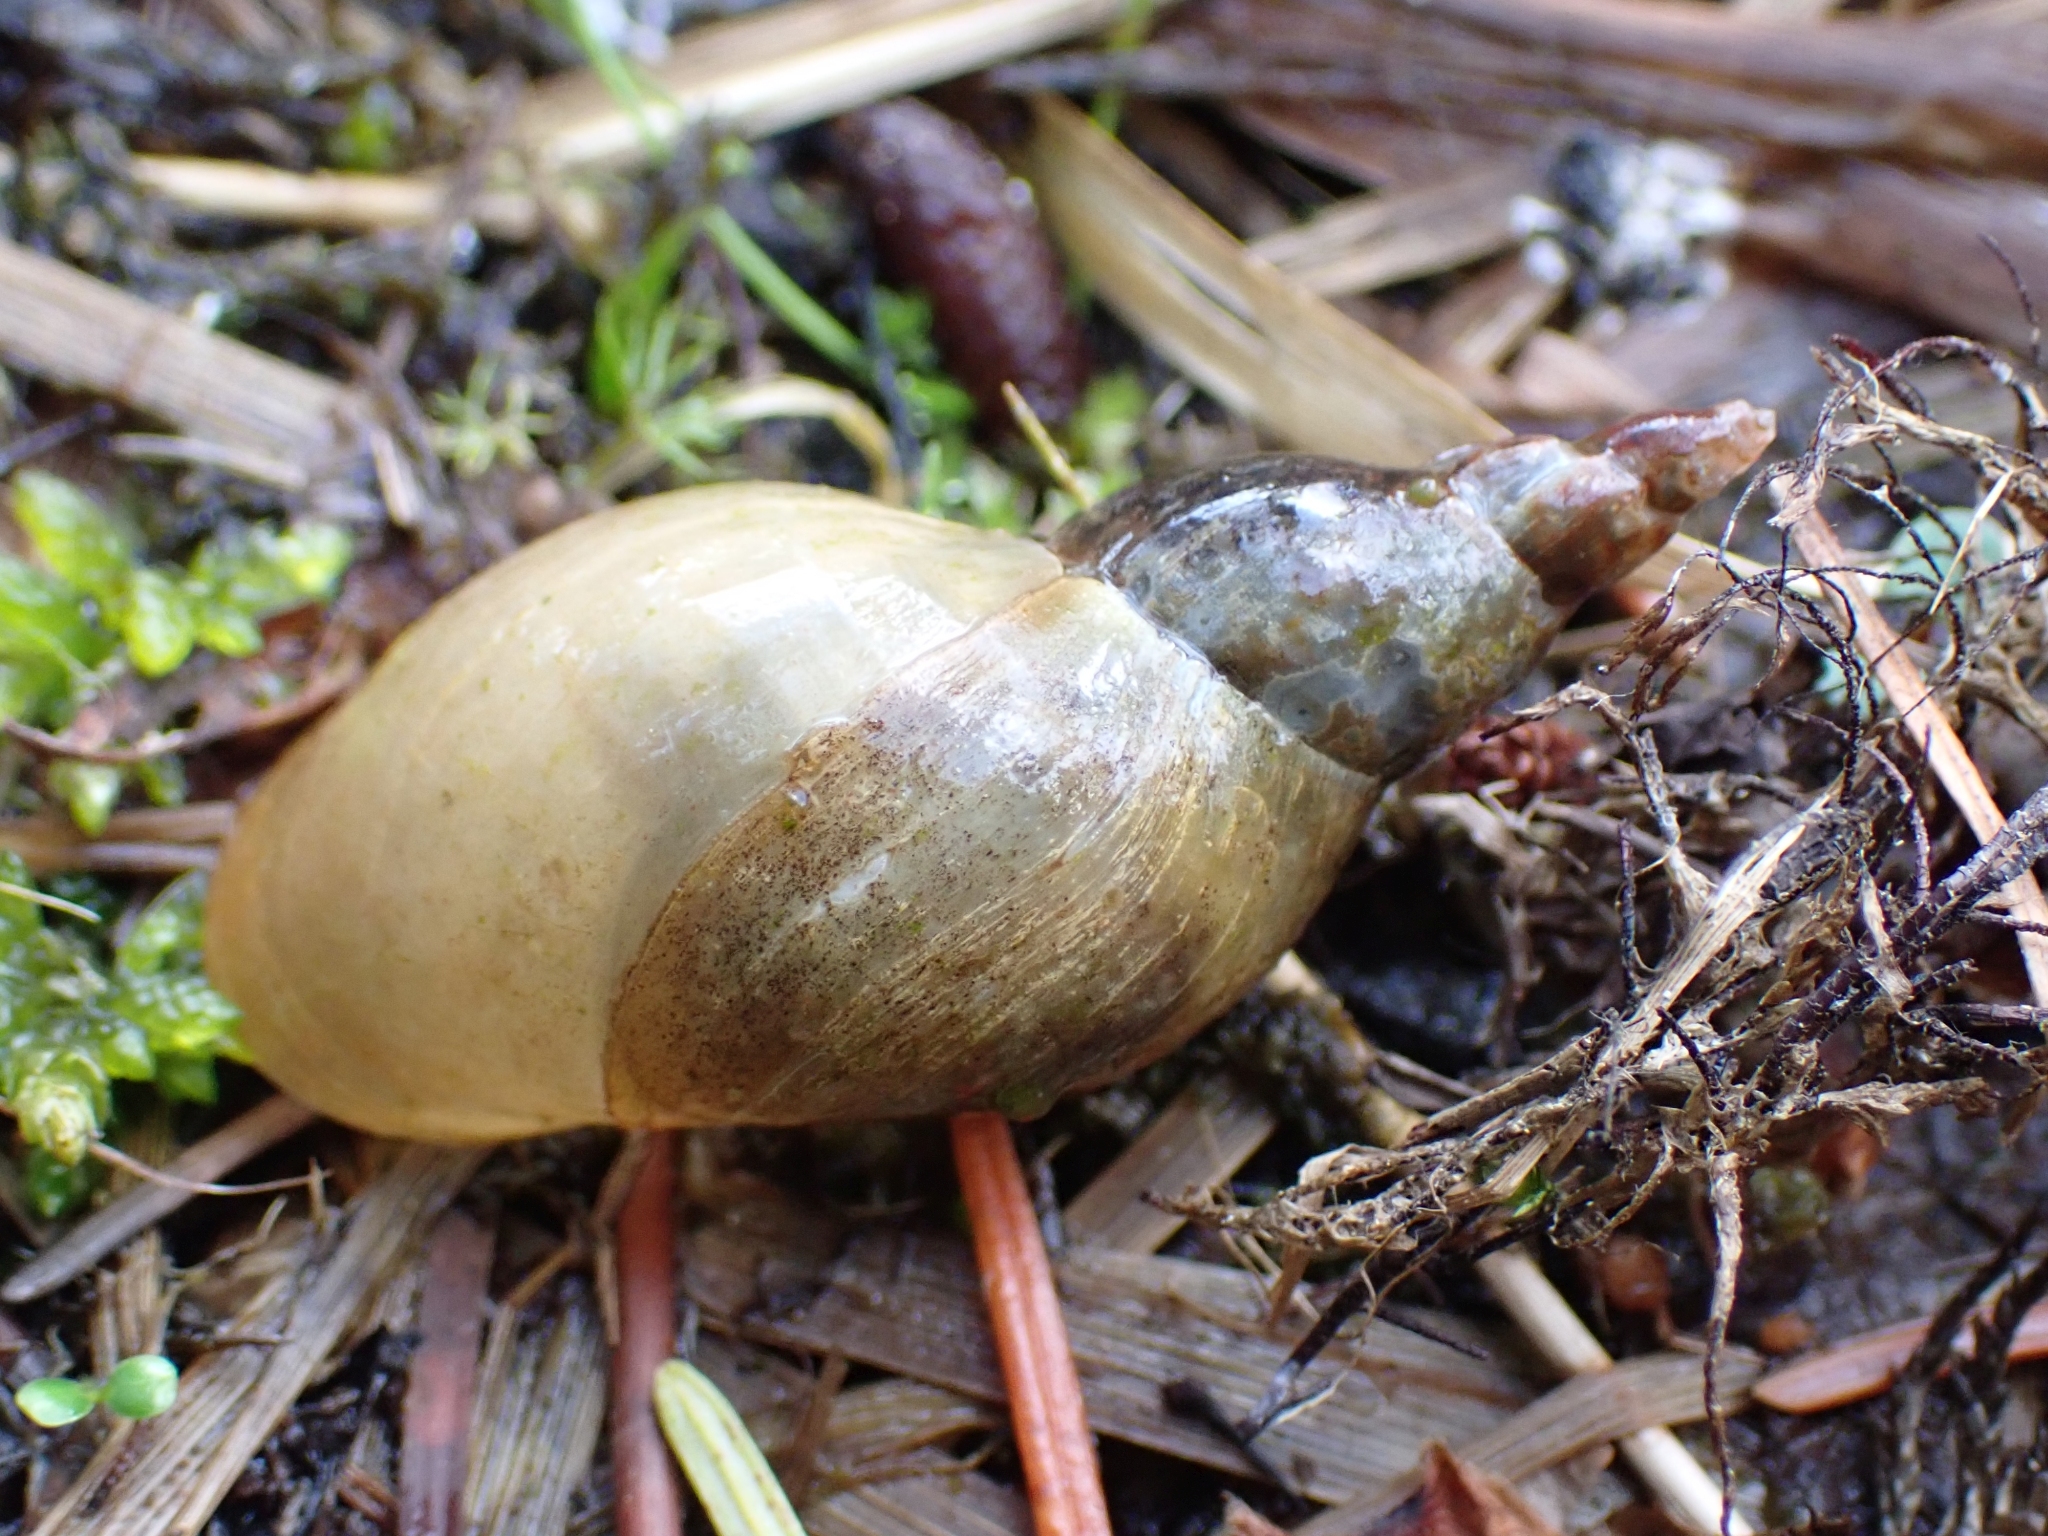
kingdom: Animalia
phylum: Mollusca
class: Gastropoda
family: Lymnaeidae
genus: Lymnaea
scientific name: Lymnaea stagnalis
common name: Great pond snail
